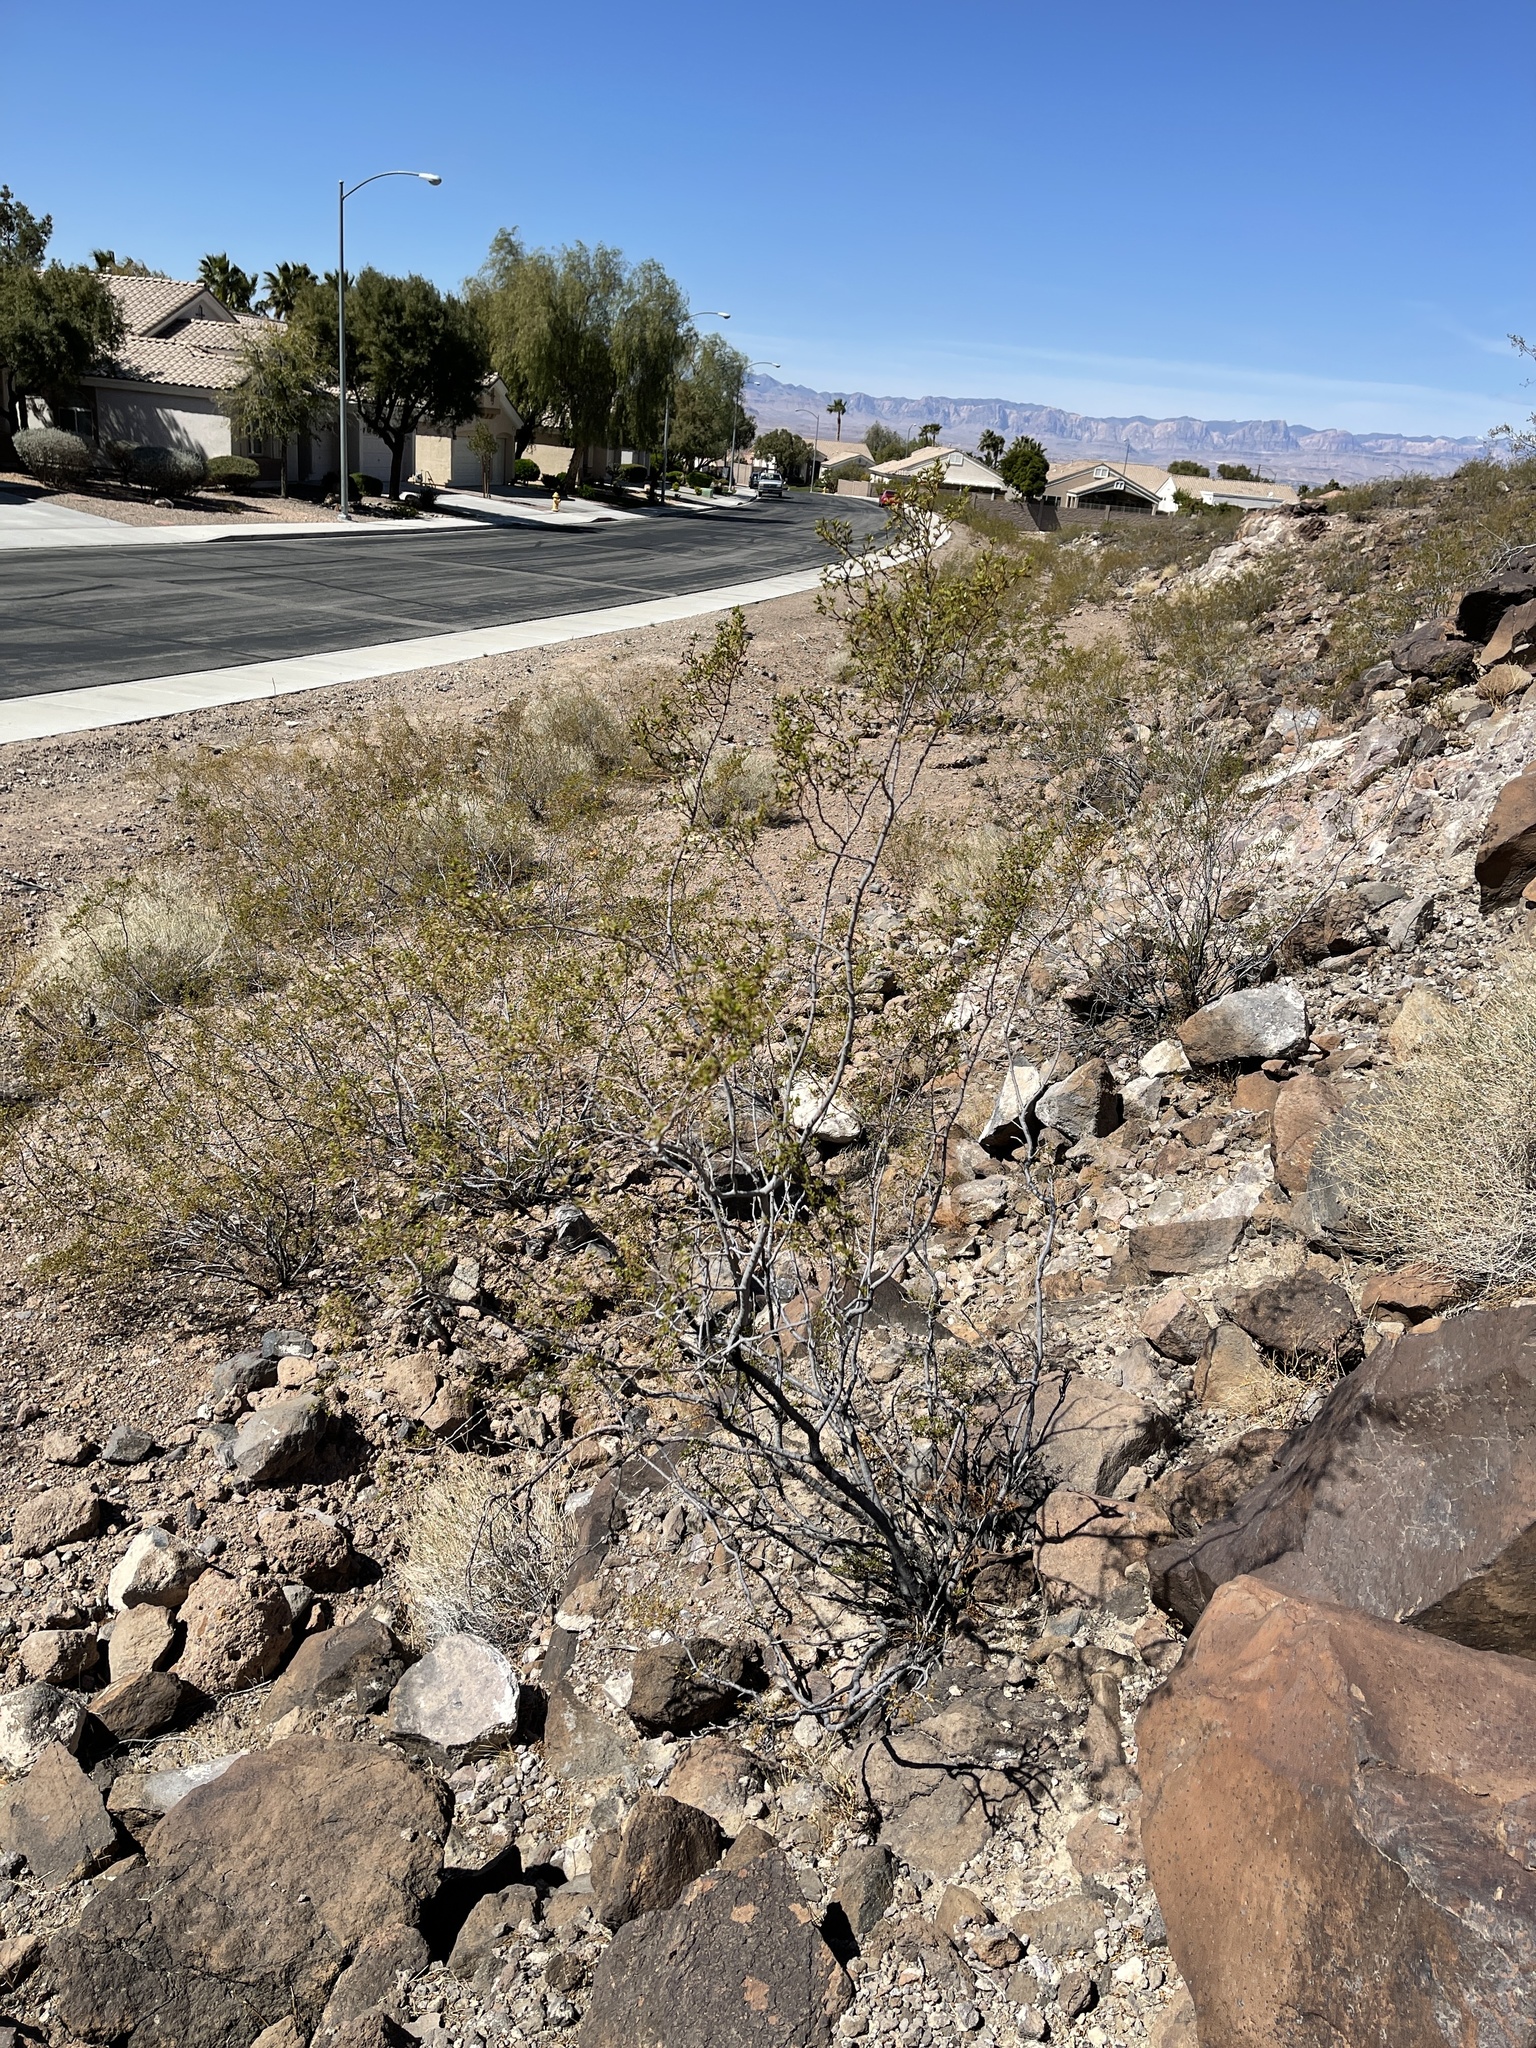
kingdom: Plantae
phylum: Tracheophyta
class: Magnoliopsida
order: Zygophyllales
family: Zygophyllaceae
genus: Larrea
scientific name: Larrea tridentata
